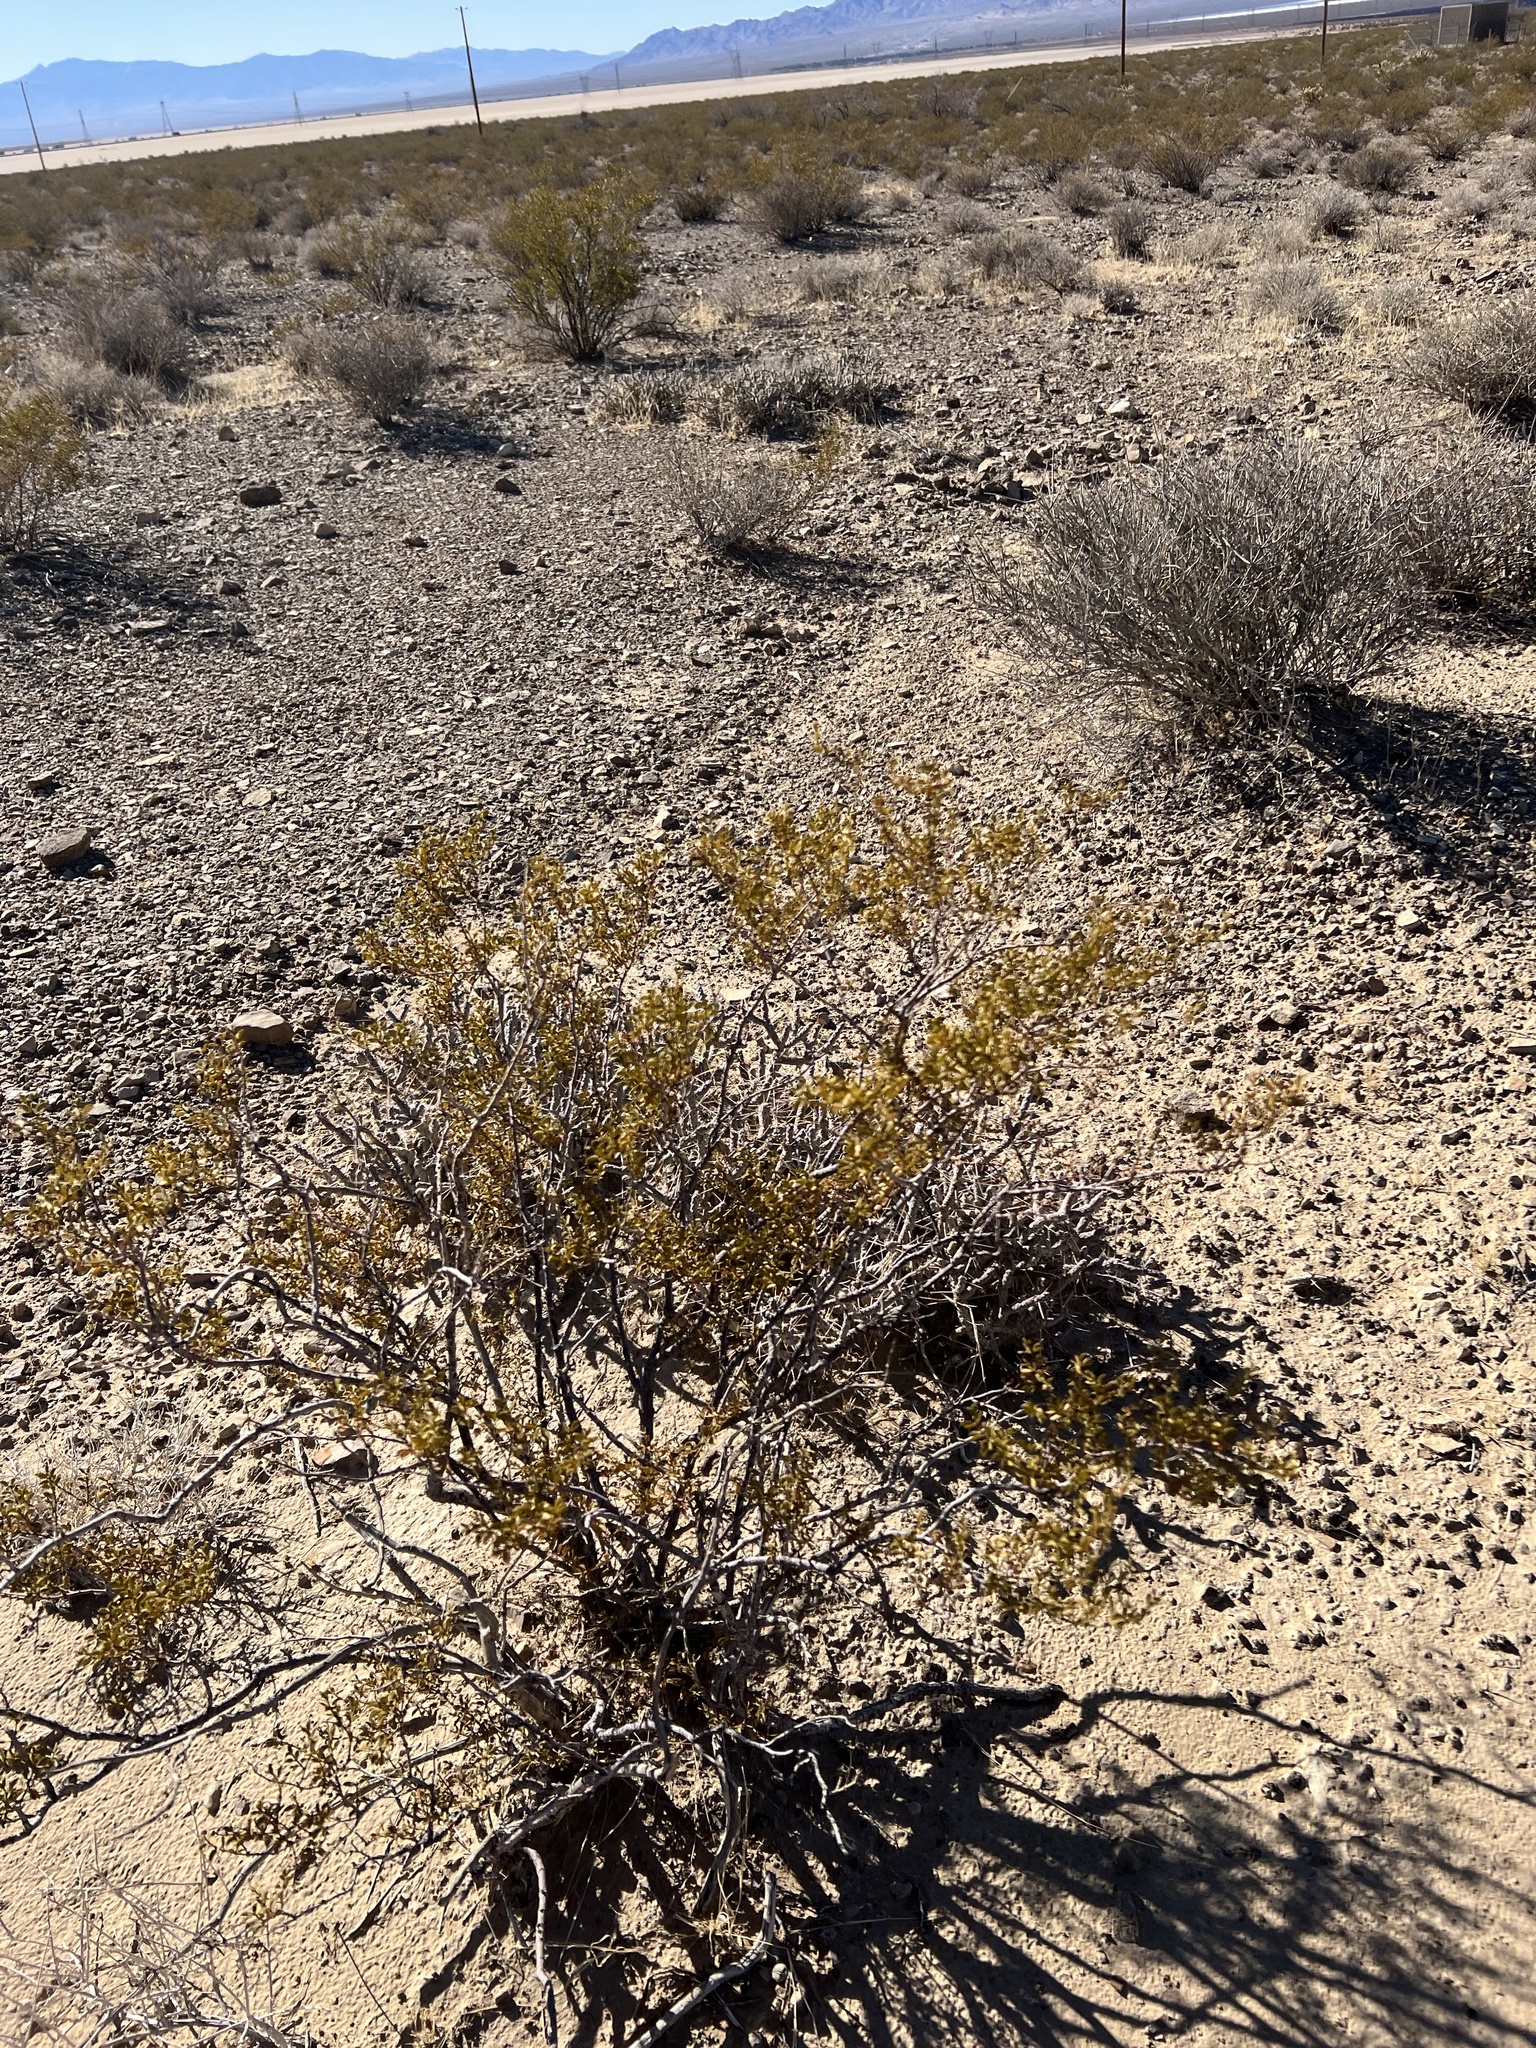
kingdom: Plantae
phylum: Tracheophyta
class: Magnoliopsida
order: Zygophyllales
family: Zygophyllaceae
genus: Larrea
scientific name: Larrea tridentata
